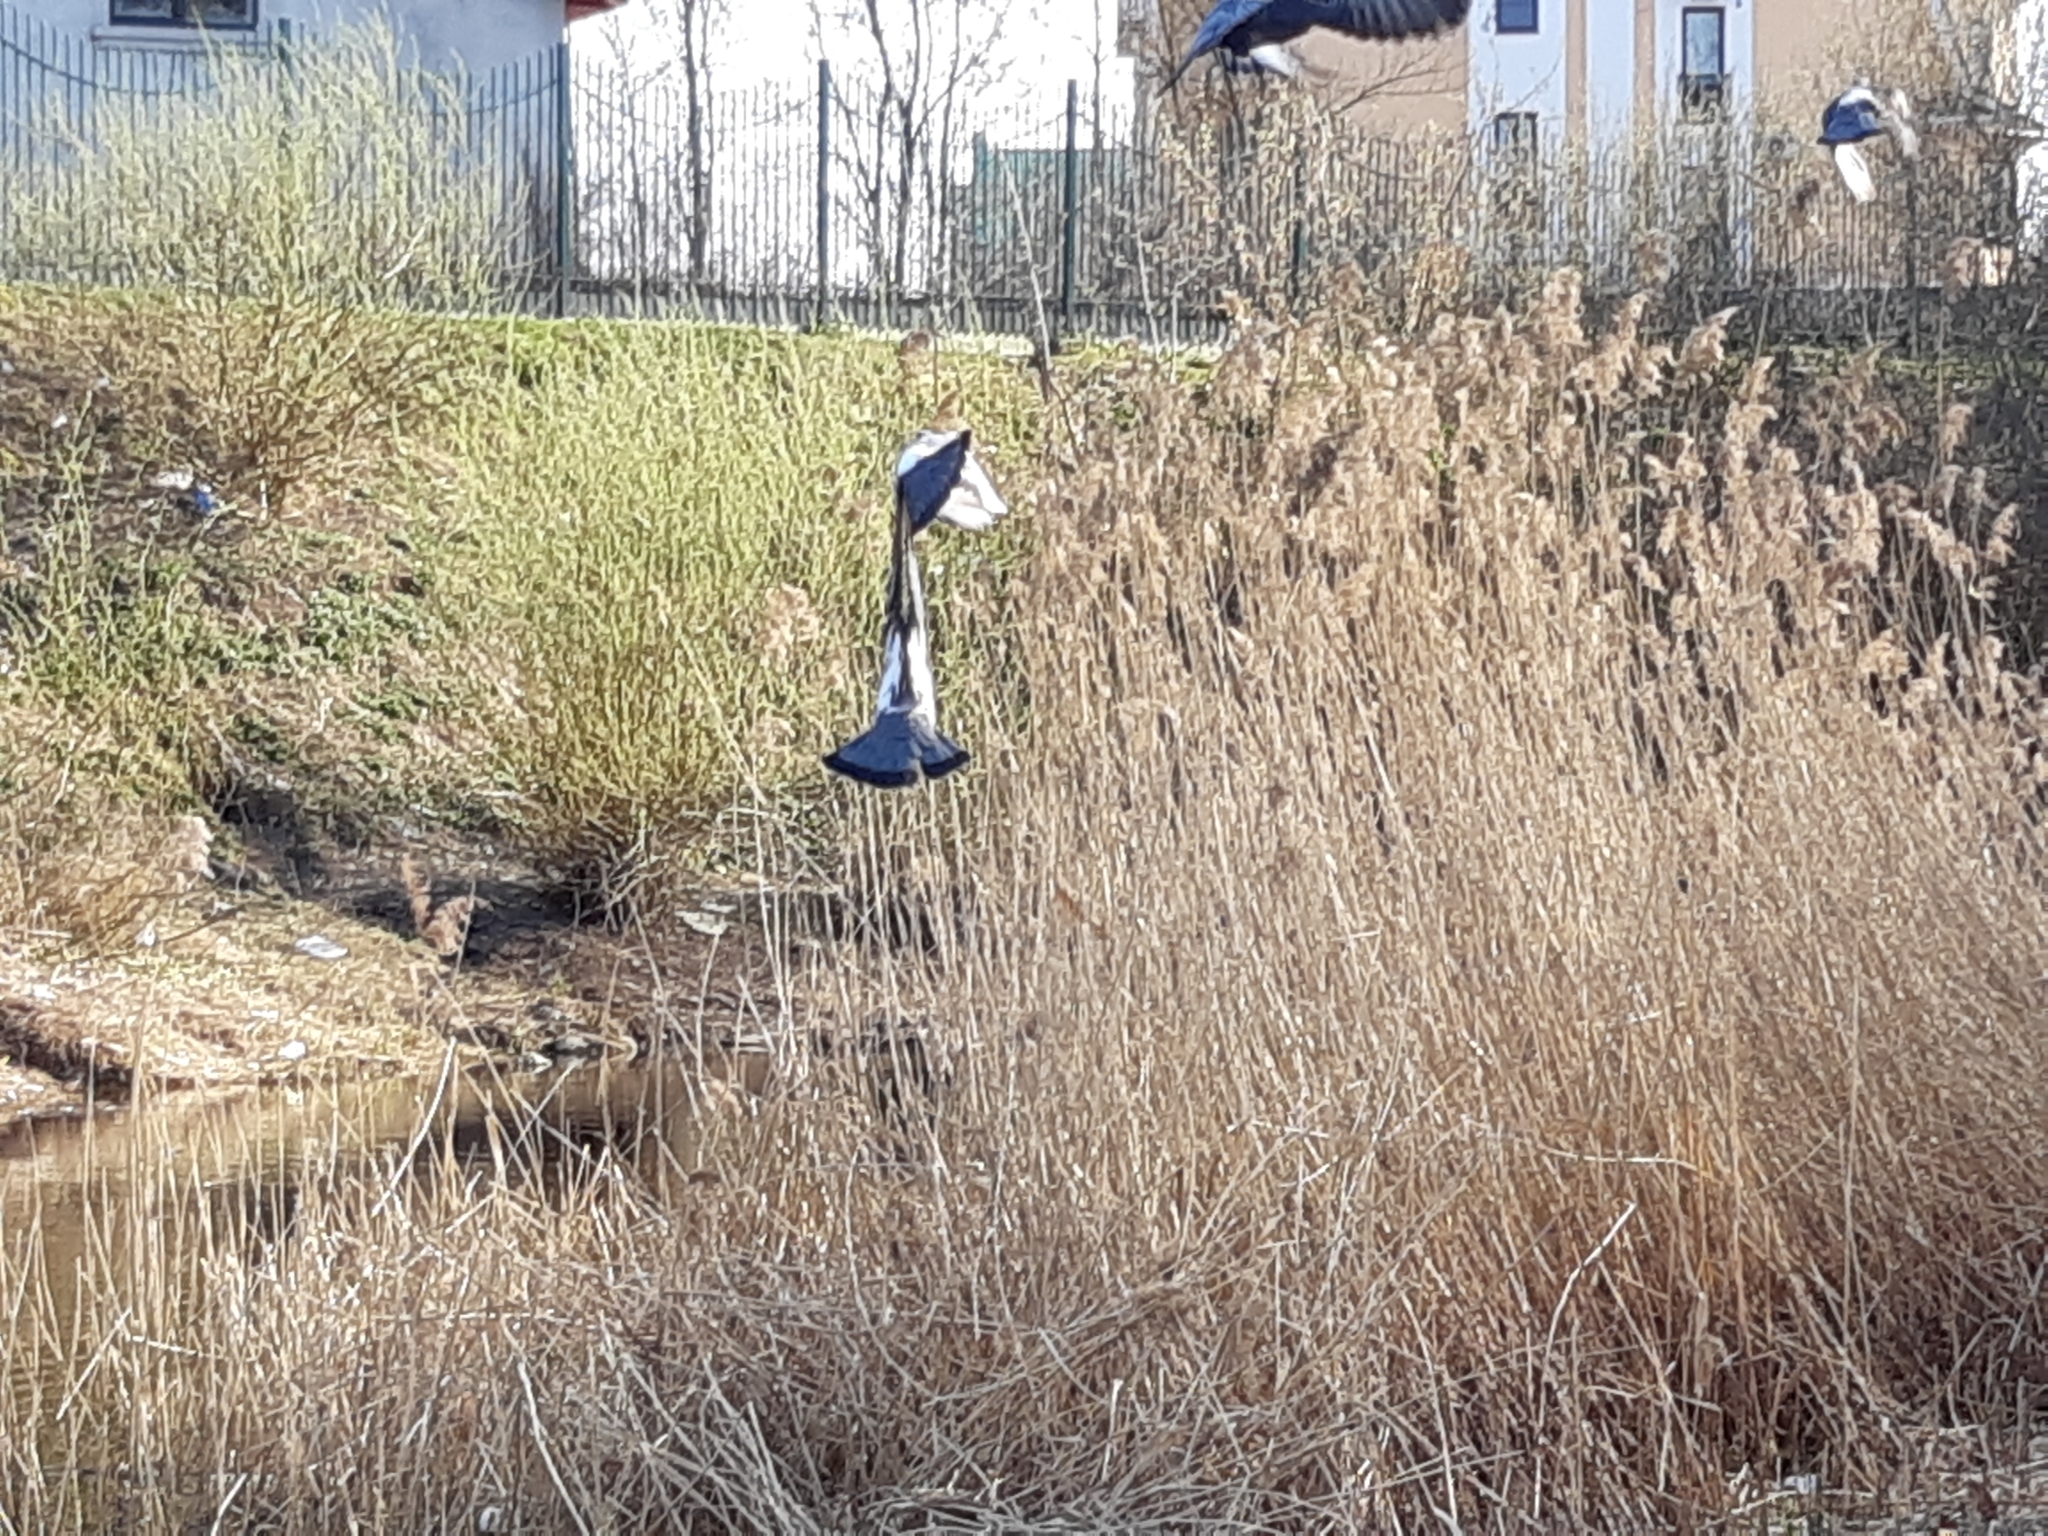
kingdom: Animalia
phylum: Chordata
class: Aves
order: Columbiformes
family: Columbidae
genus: Columba
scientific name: Columba livia
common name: Rock pigeon
